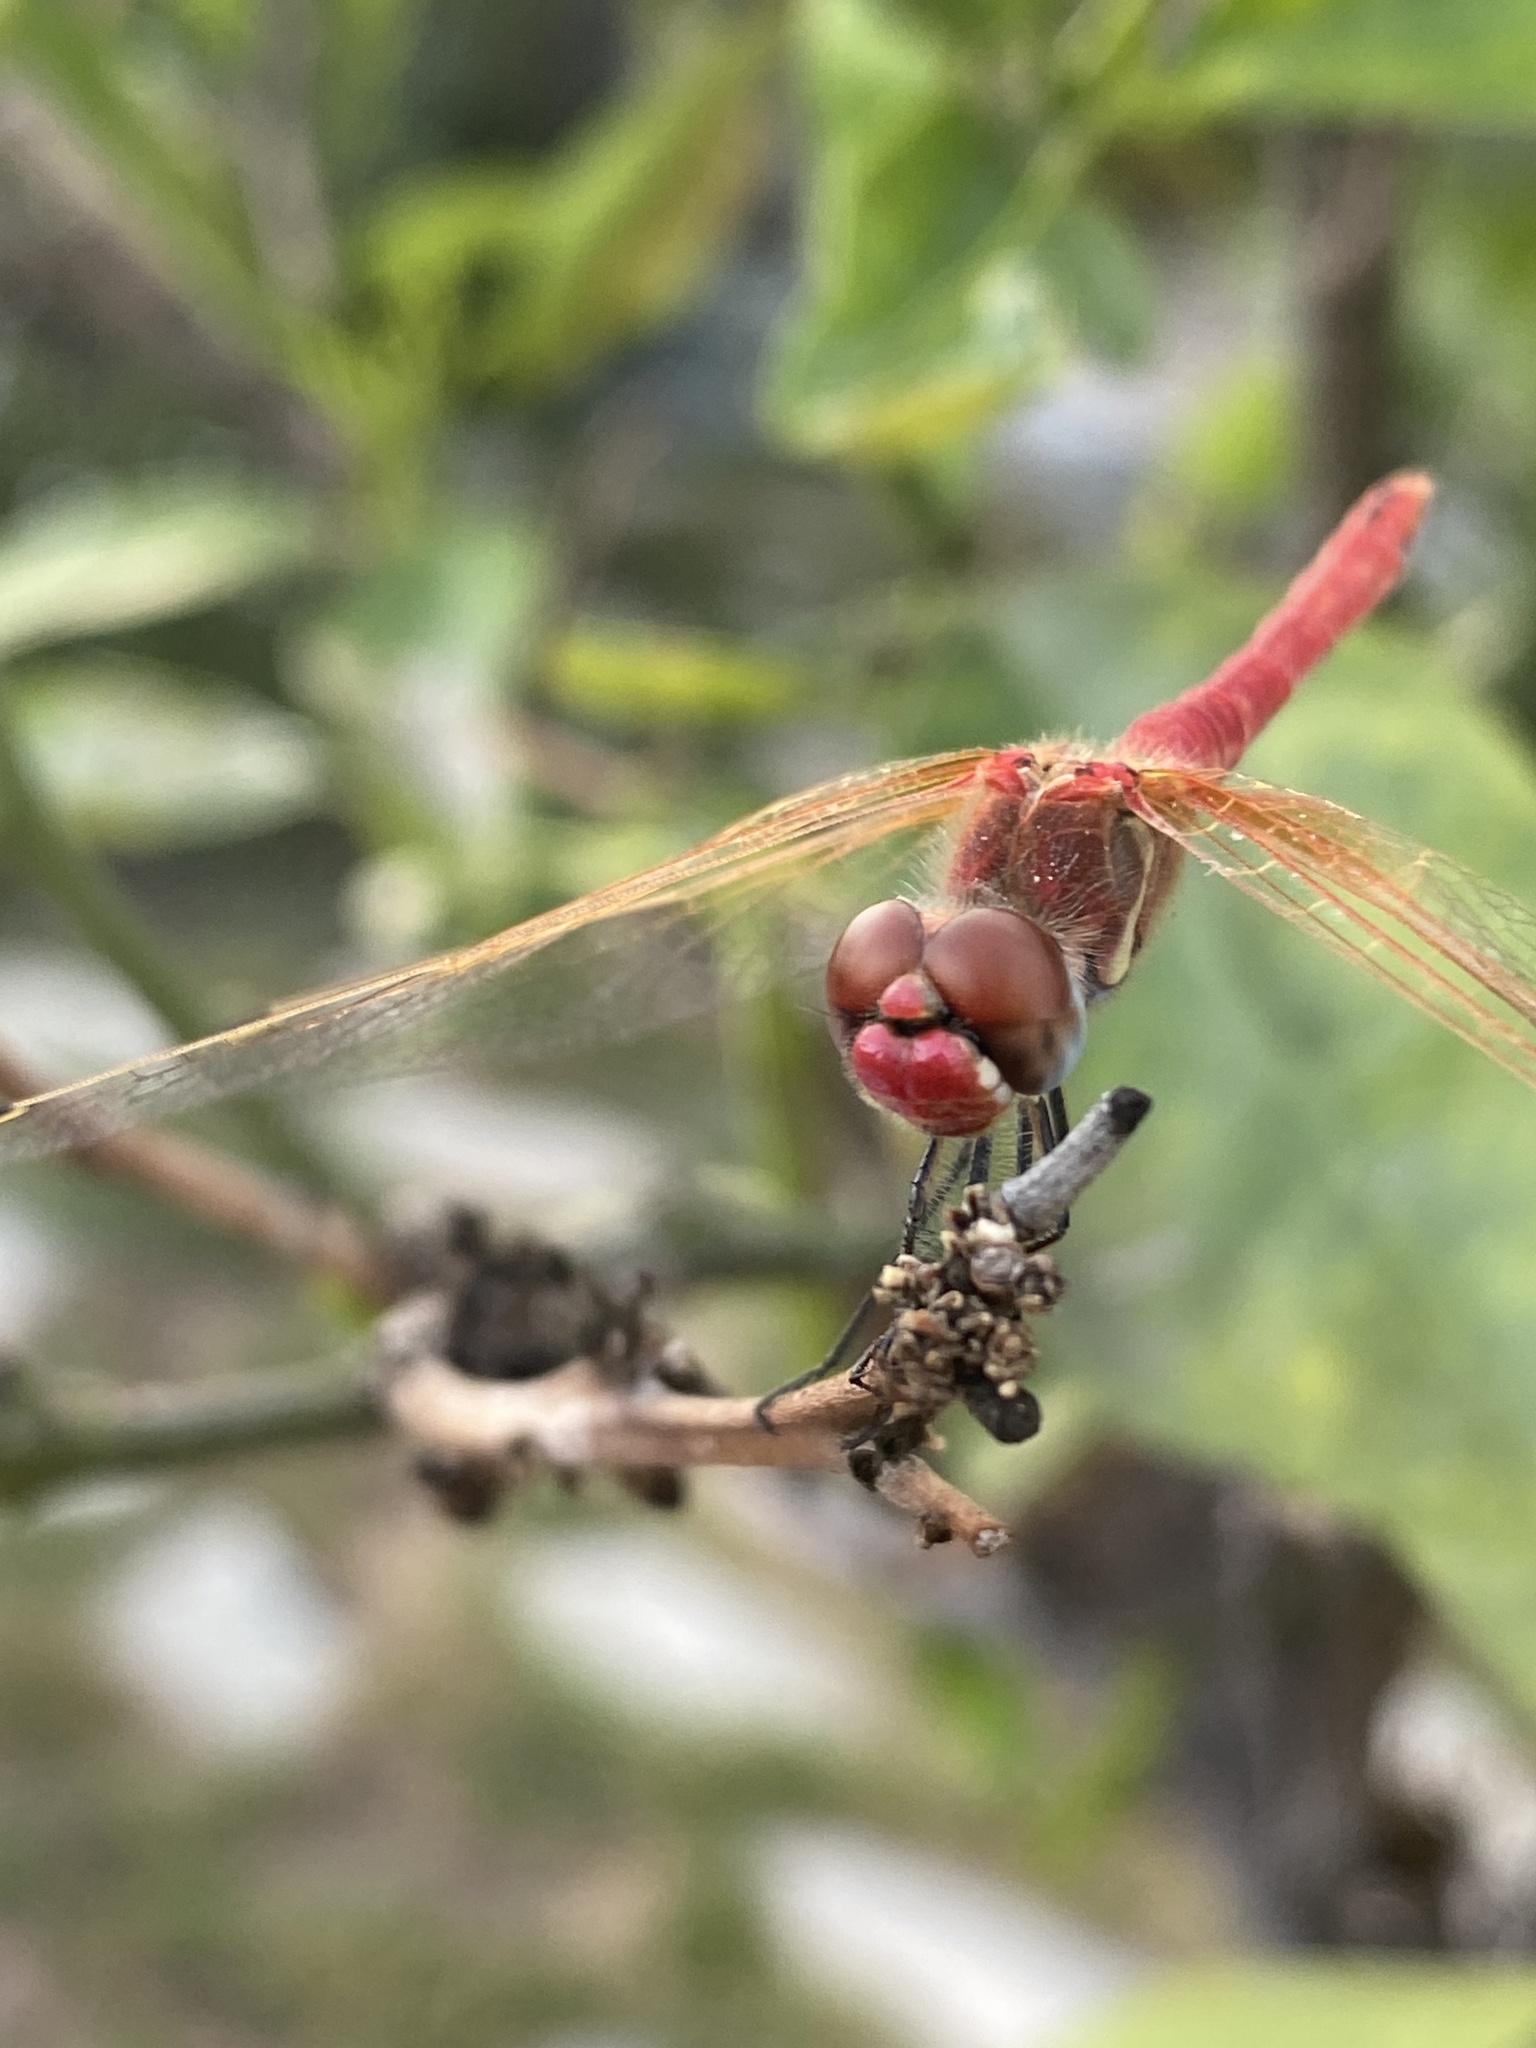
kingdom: Animalia
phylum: Arthropoda
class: Insecta
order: Odonata
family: Libellulidae
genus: Sympetrum
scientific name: Sympetrum fonscolombii
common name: Red-veined darter
